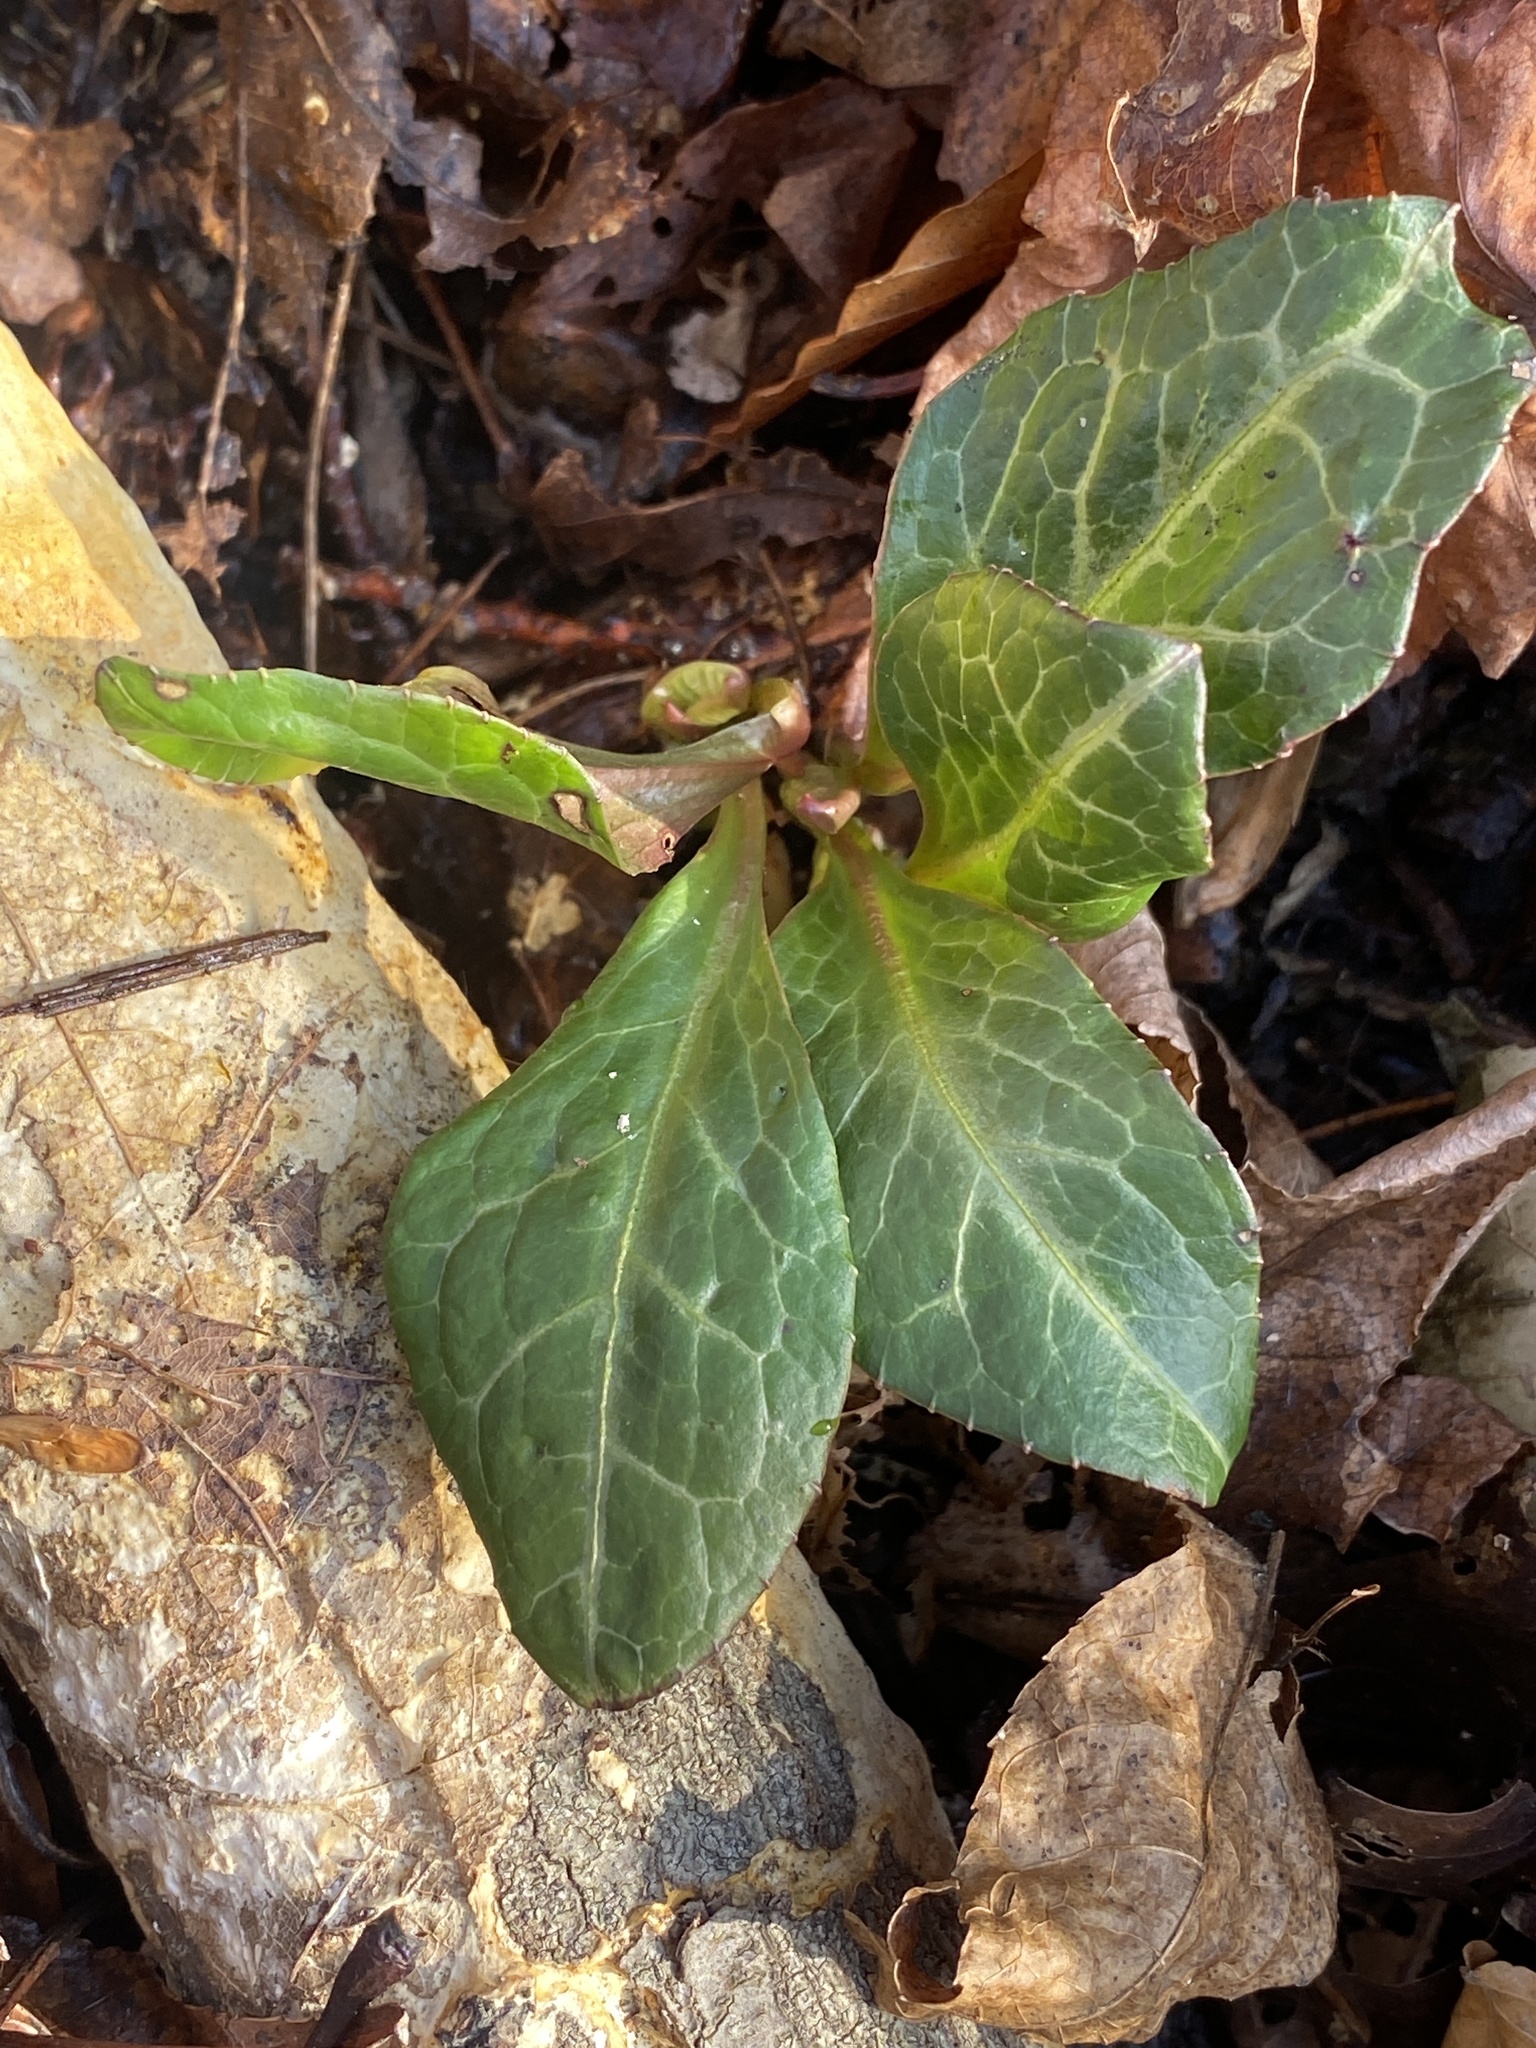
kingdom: Plantae
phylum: Tracheophyta
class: Magnoliopsida
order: Ericales
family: Ericaceae
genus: Pyrola
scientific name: Pyrola americana
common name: American wintergreen
